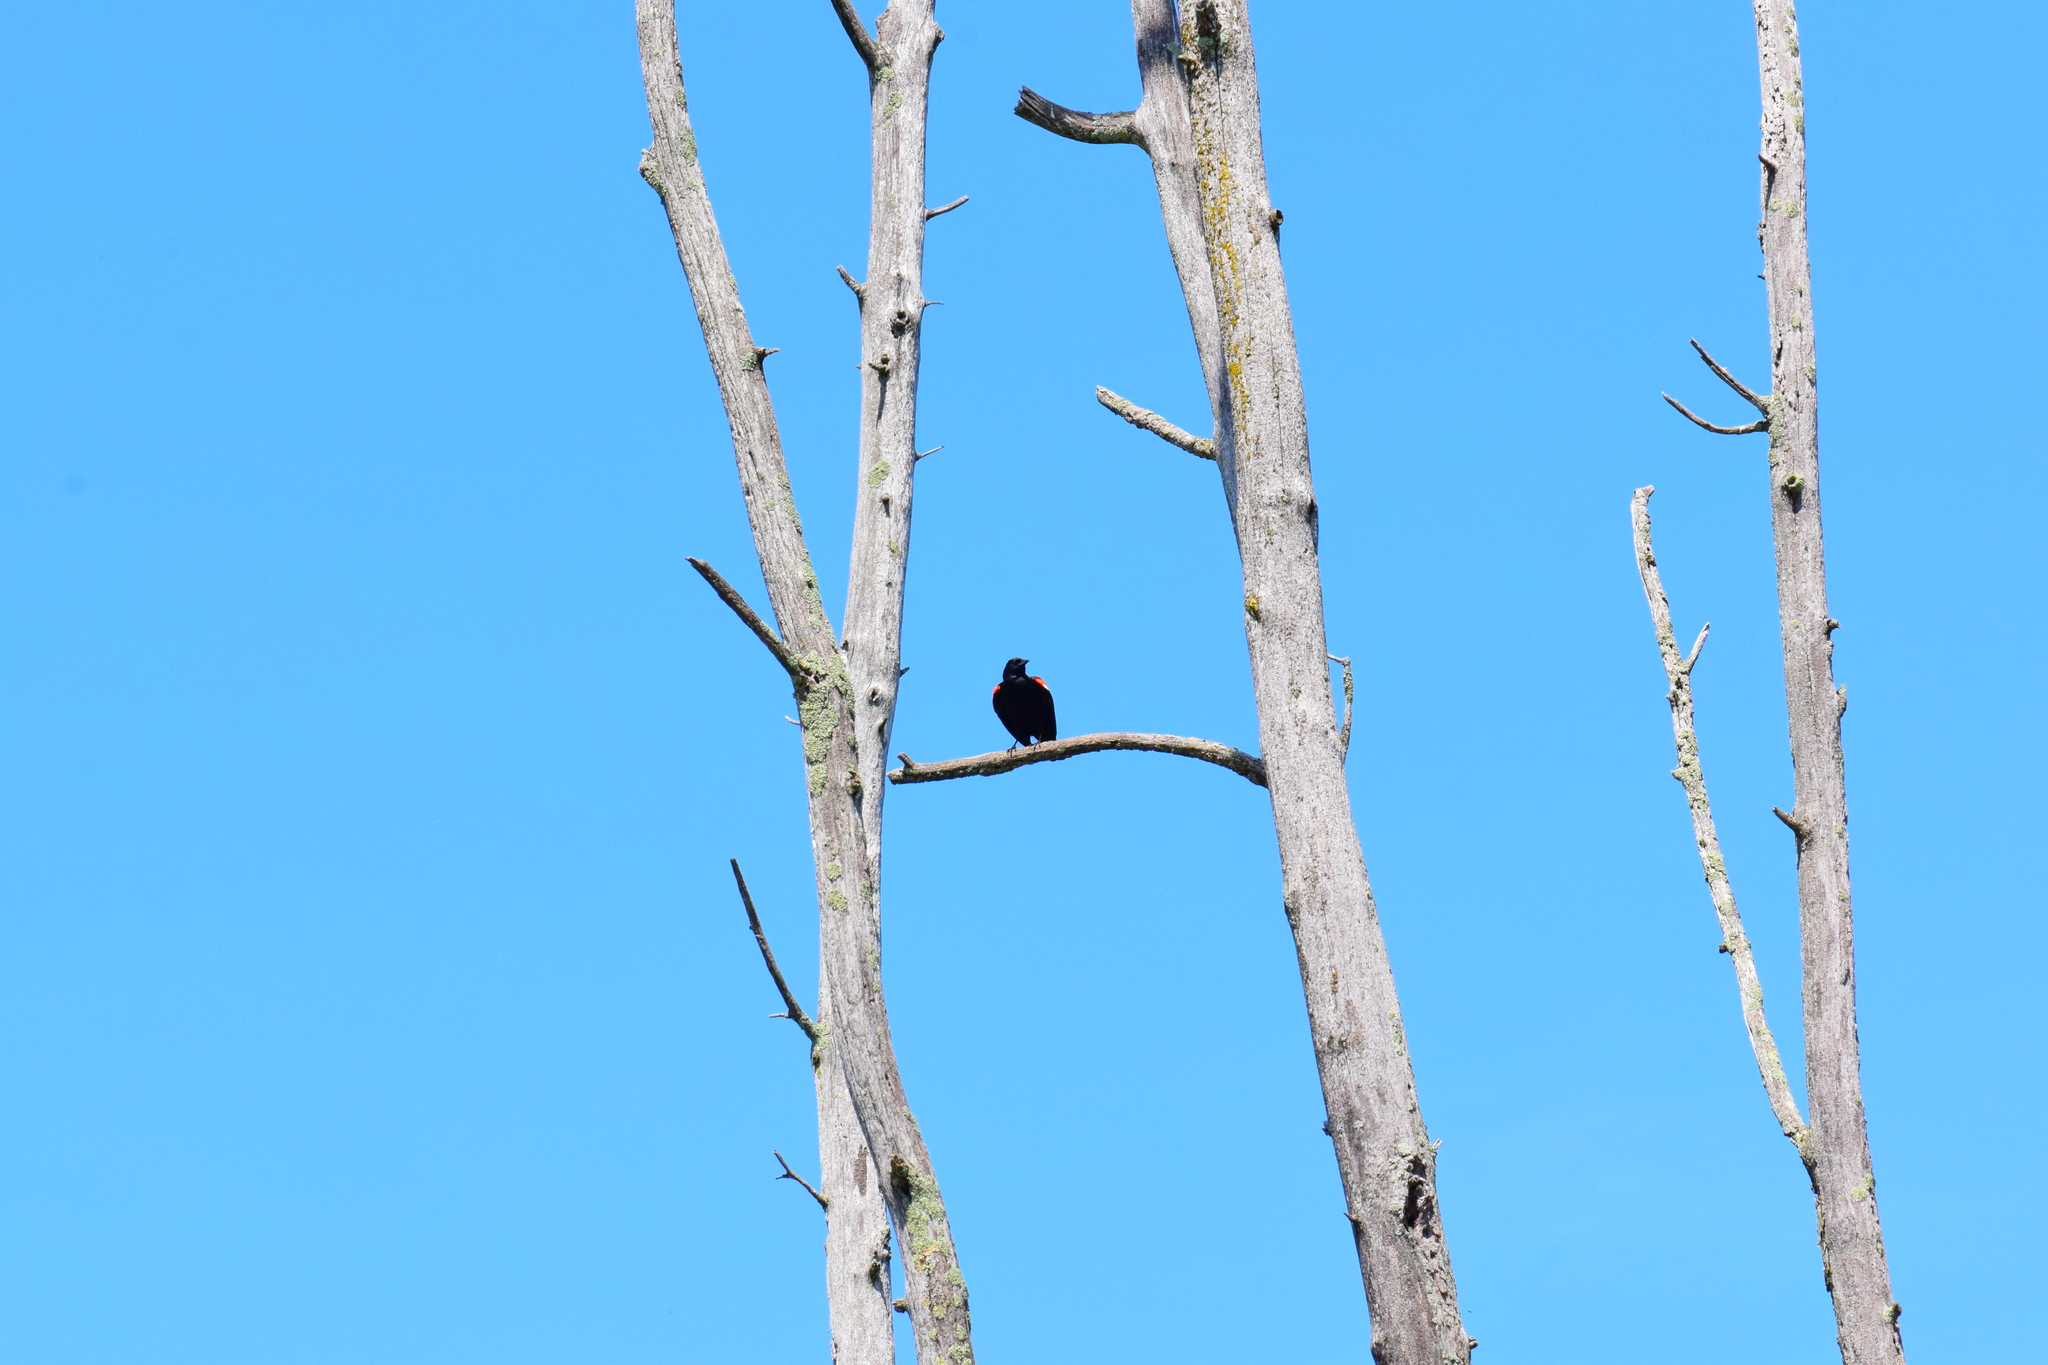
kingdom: Animalia
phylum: Chordata
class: Aves
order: Passeriformes
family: Icteridae
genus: Agelaius
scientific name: Agelaius phoeniceus
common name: Red-winged blackbird
